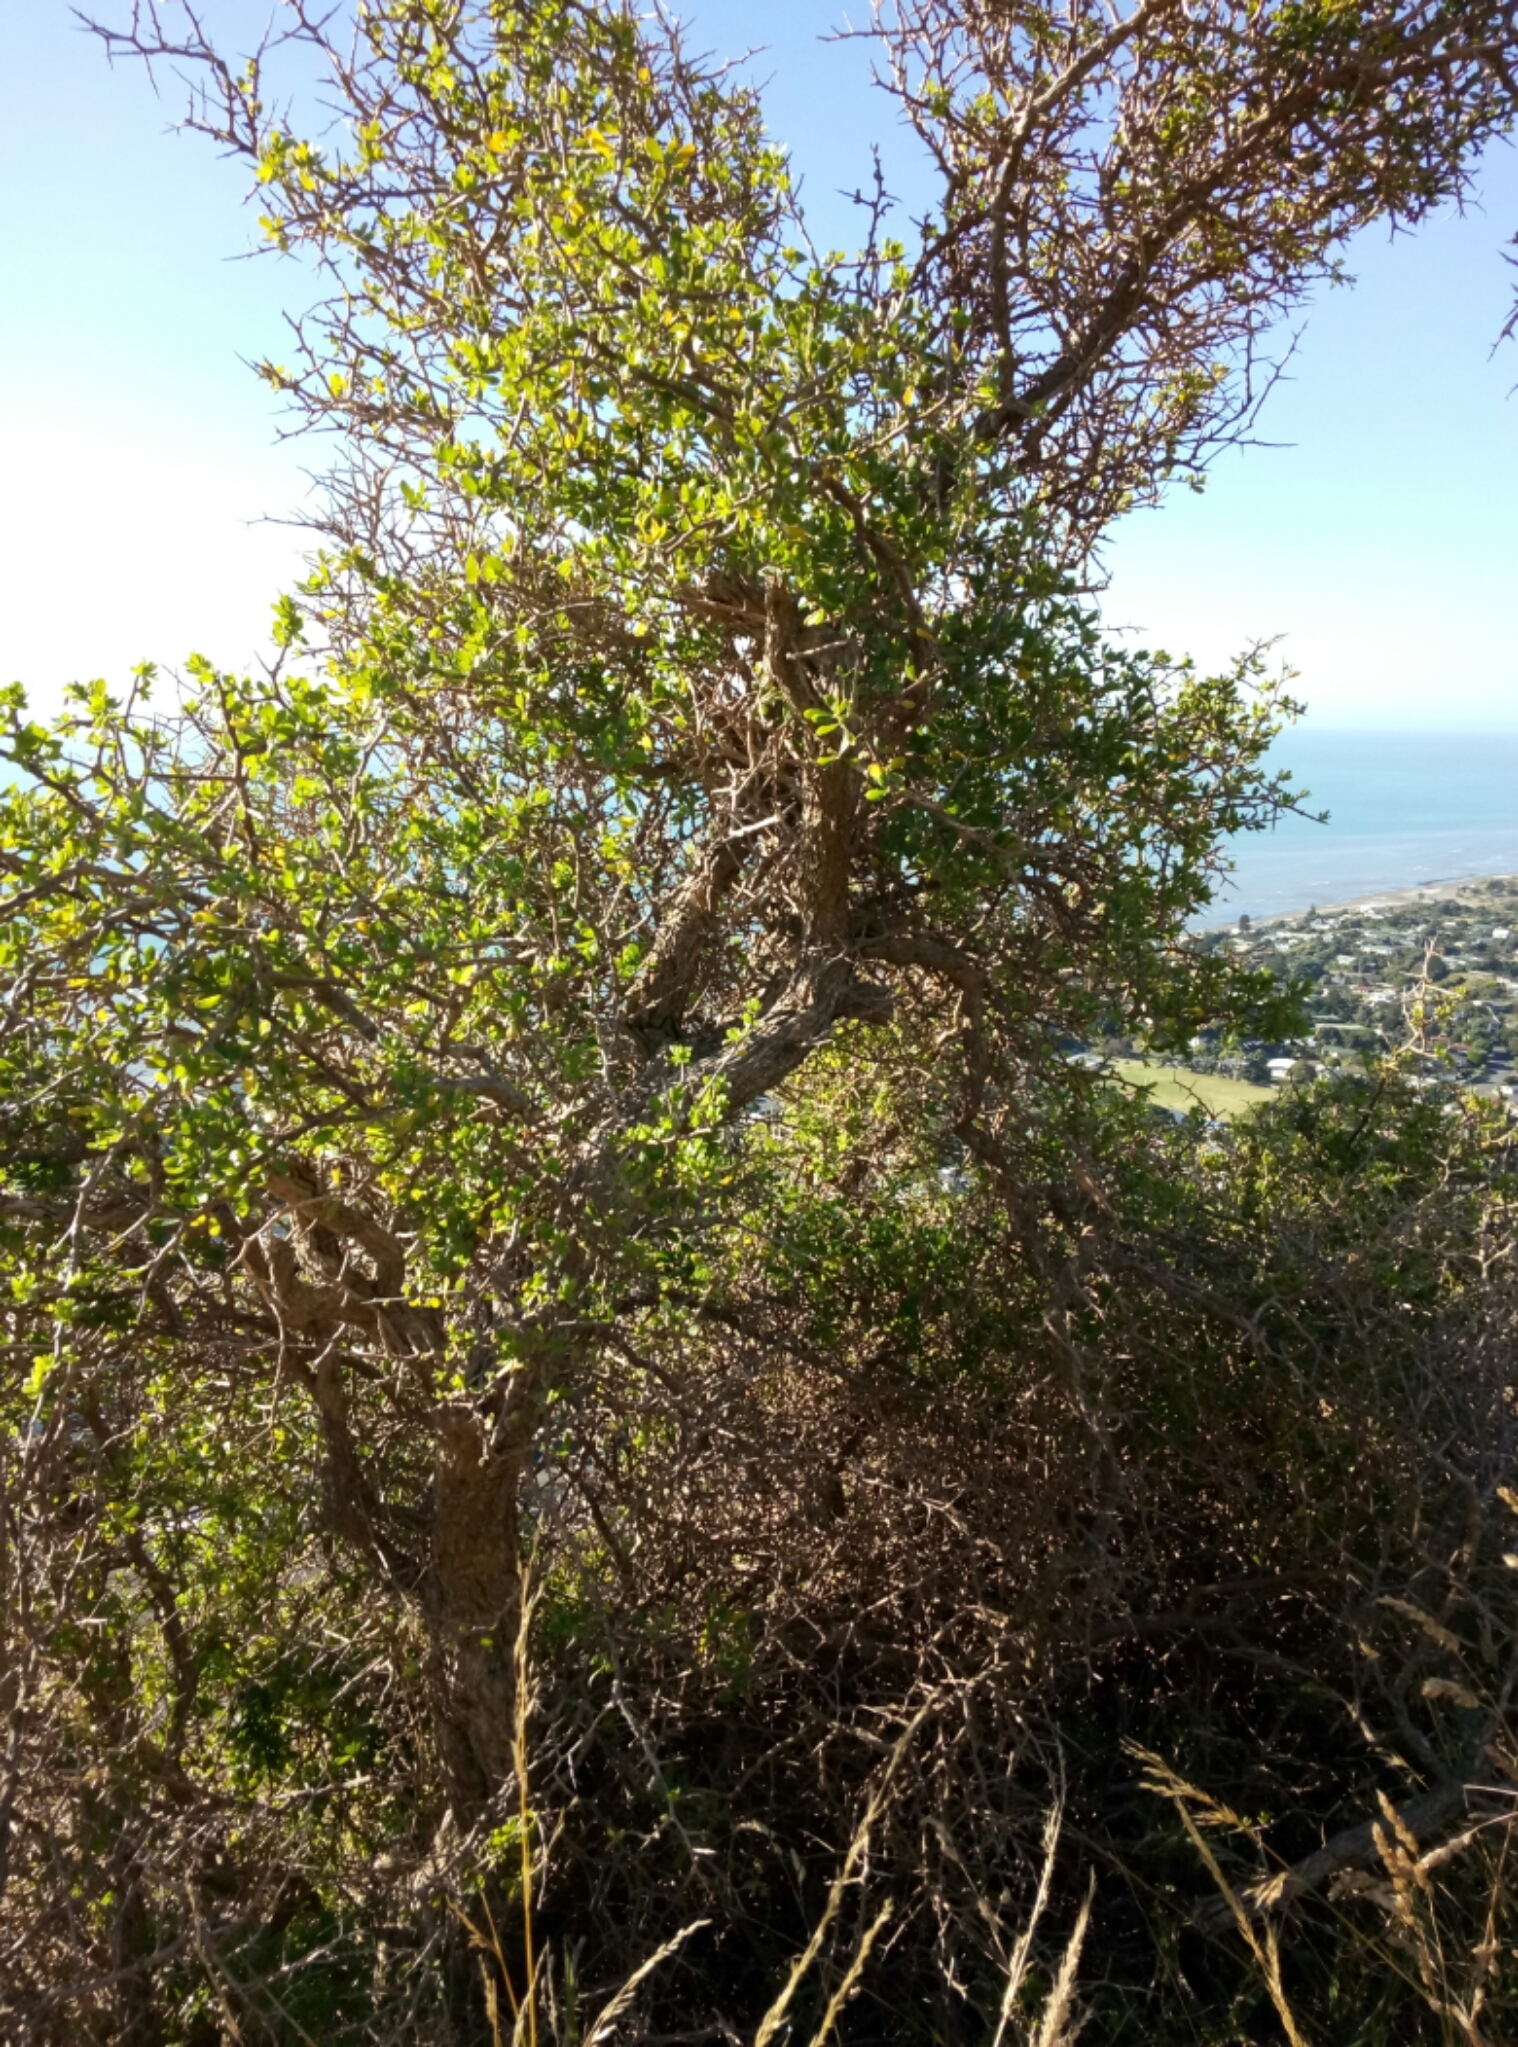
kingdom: Plantae
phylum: Tracheophyta
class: Magnoliopsida
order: Solanales
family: Solanaceae
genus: Lycium
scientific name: Lycium ferocissimum
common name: African boxthorn
